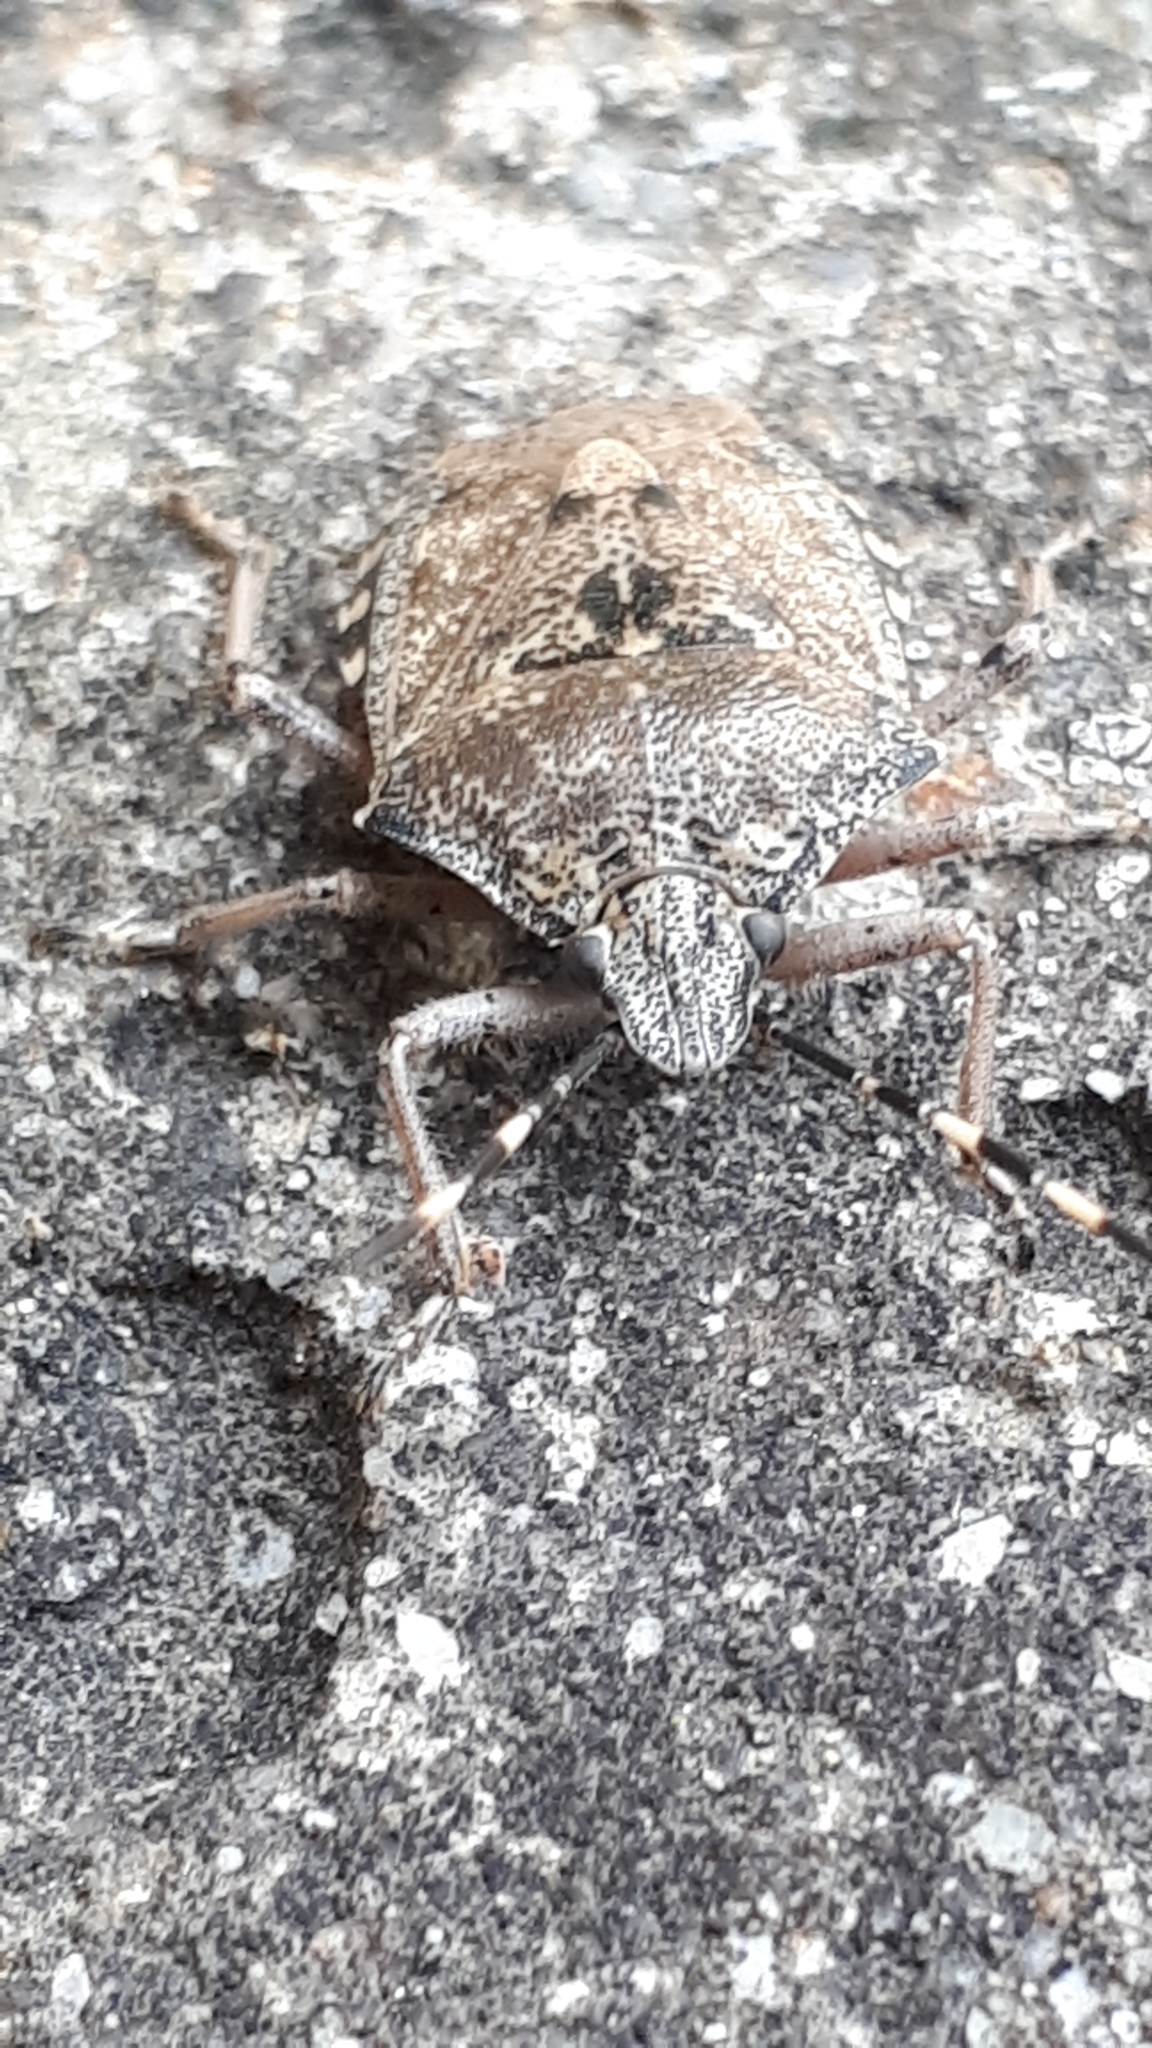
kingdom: Animalia
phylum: Arthropoda
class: Insecta
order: Hemiptera
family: Pentatomidae
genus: Rhaphigaster
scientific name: Rhaphigaster nebulosa
